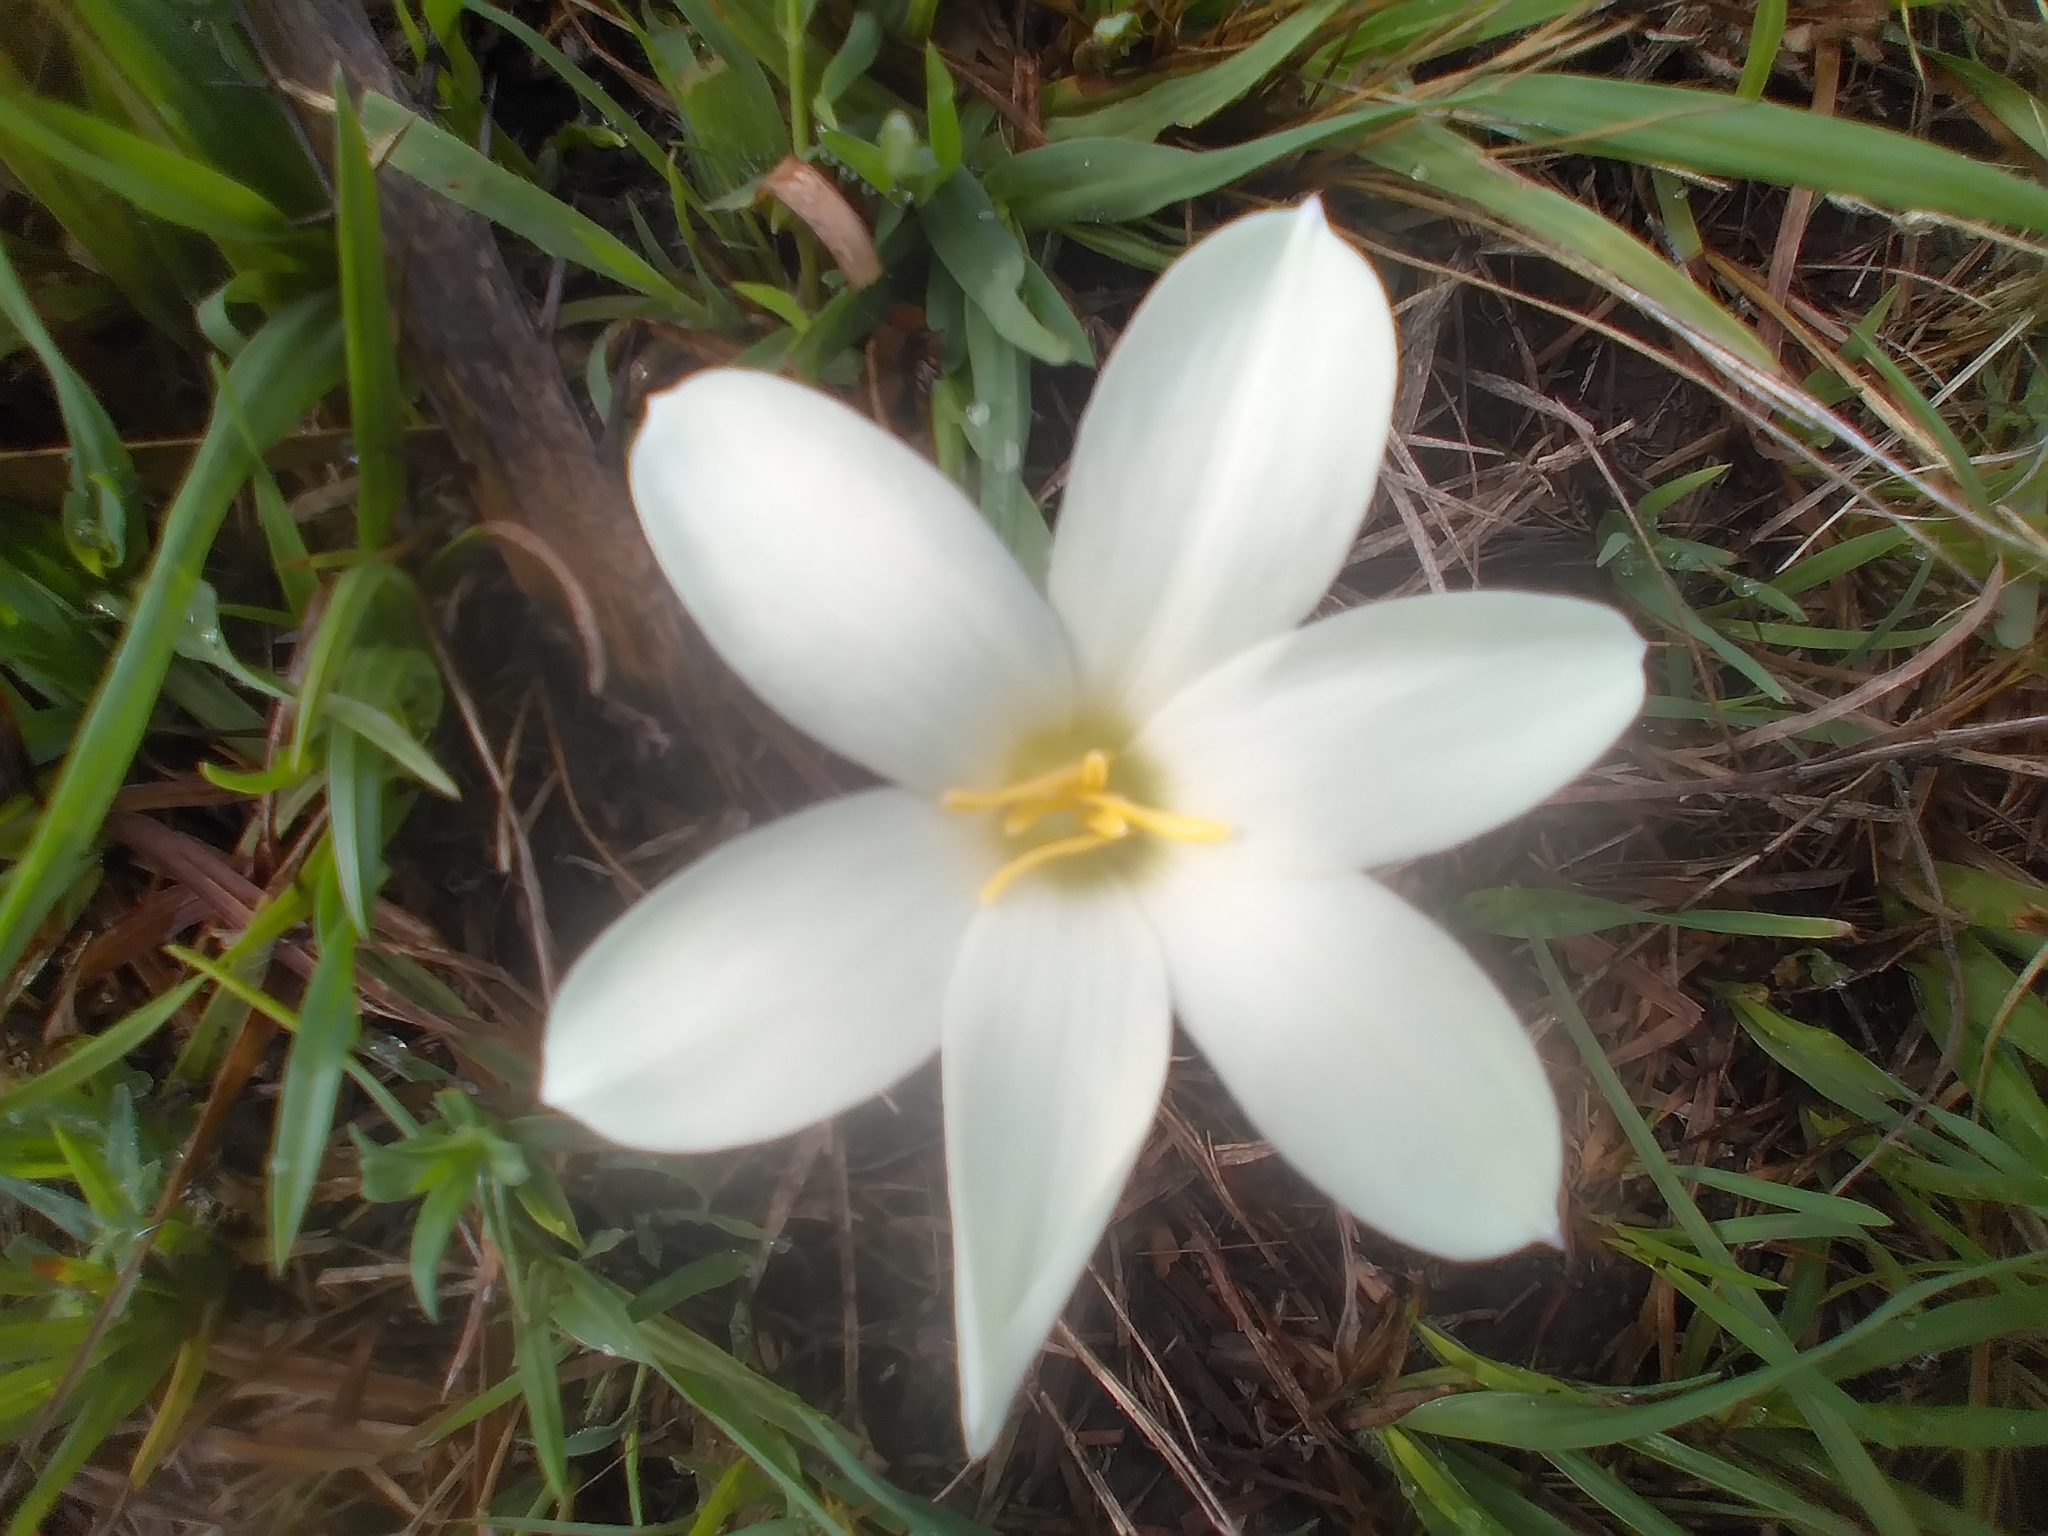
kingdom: Plantae
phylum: Tracheophyta
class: Liliopsida
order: Asparagales
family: Amaryllidaceae
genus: Zephyranthes
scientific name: Zephyranthes americana
